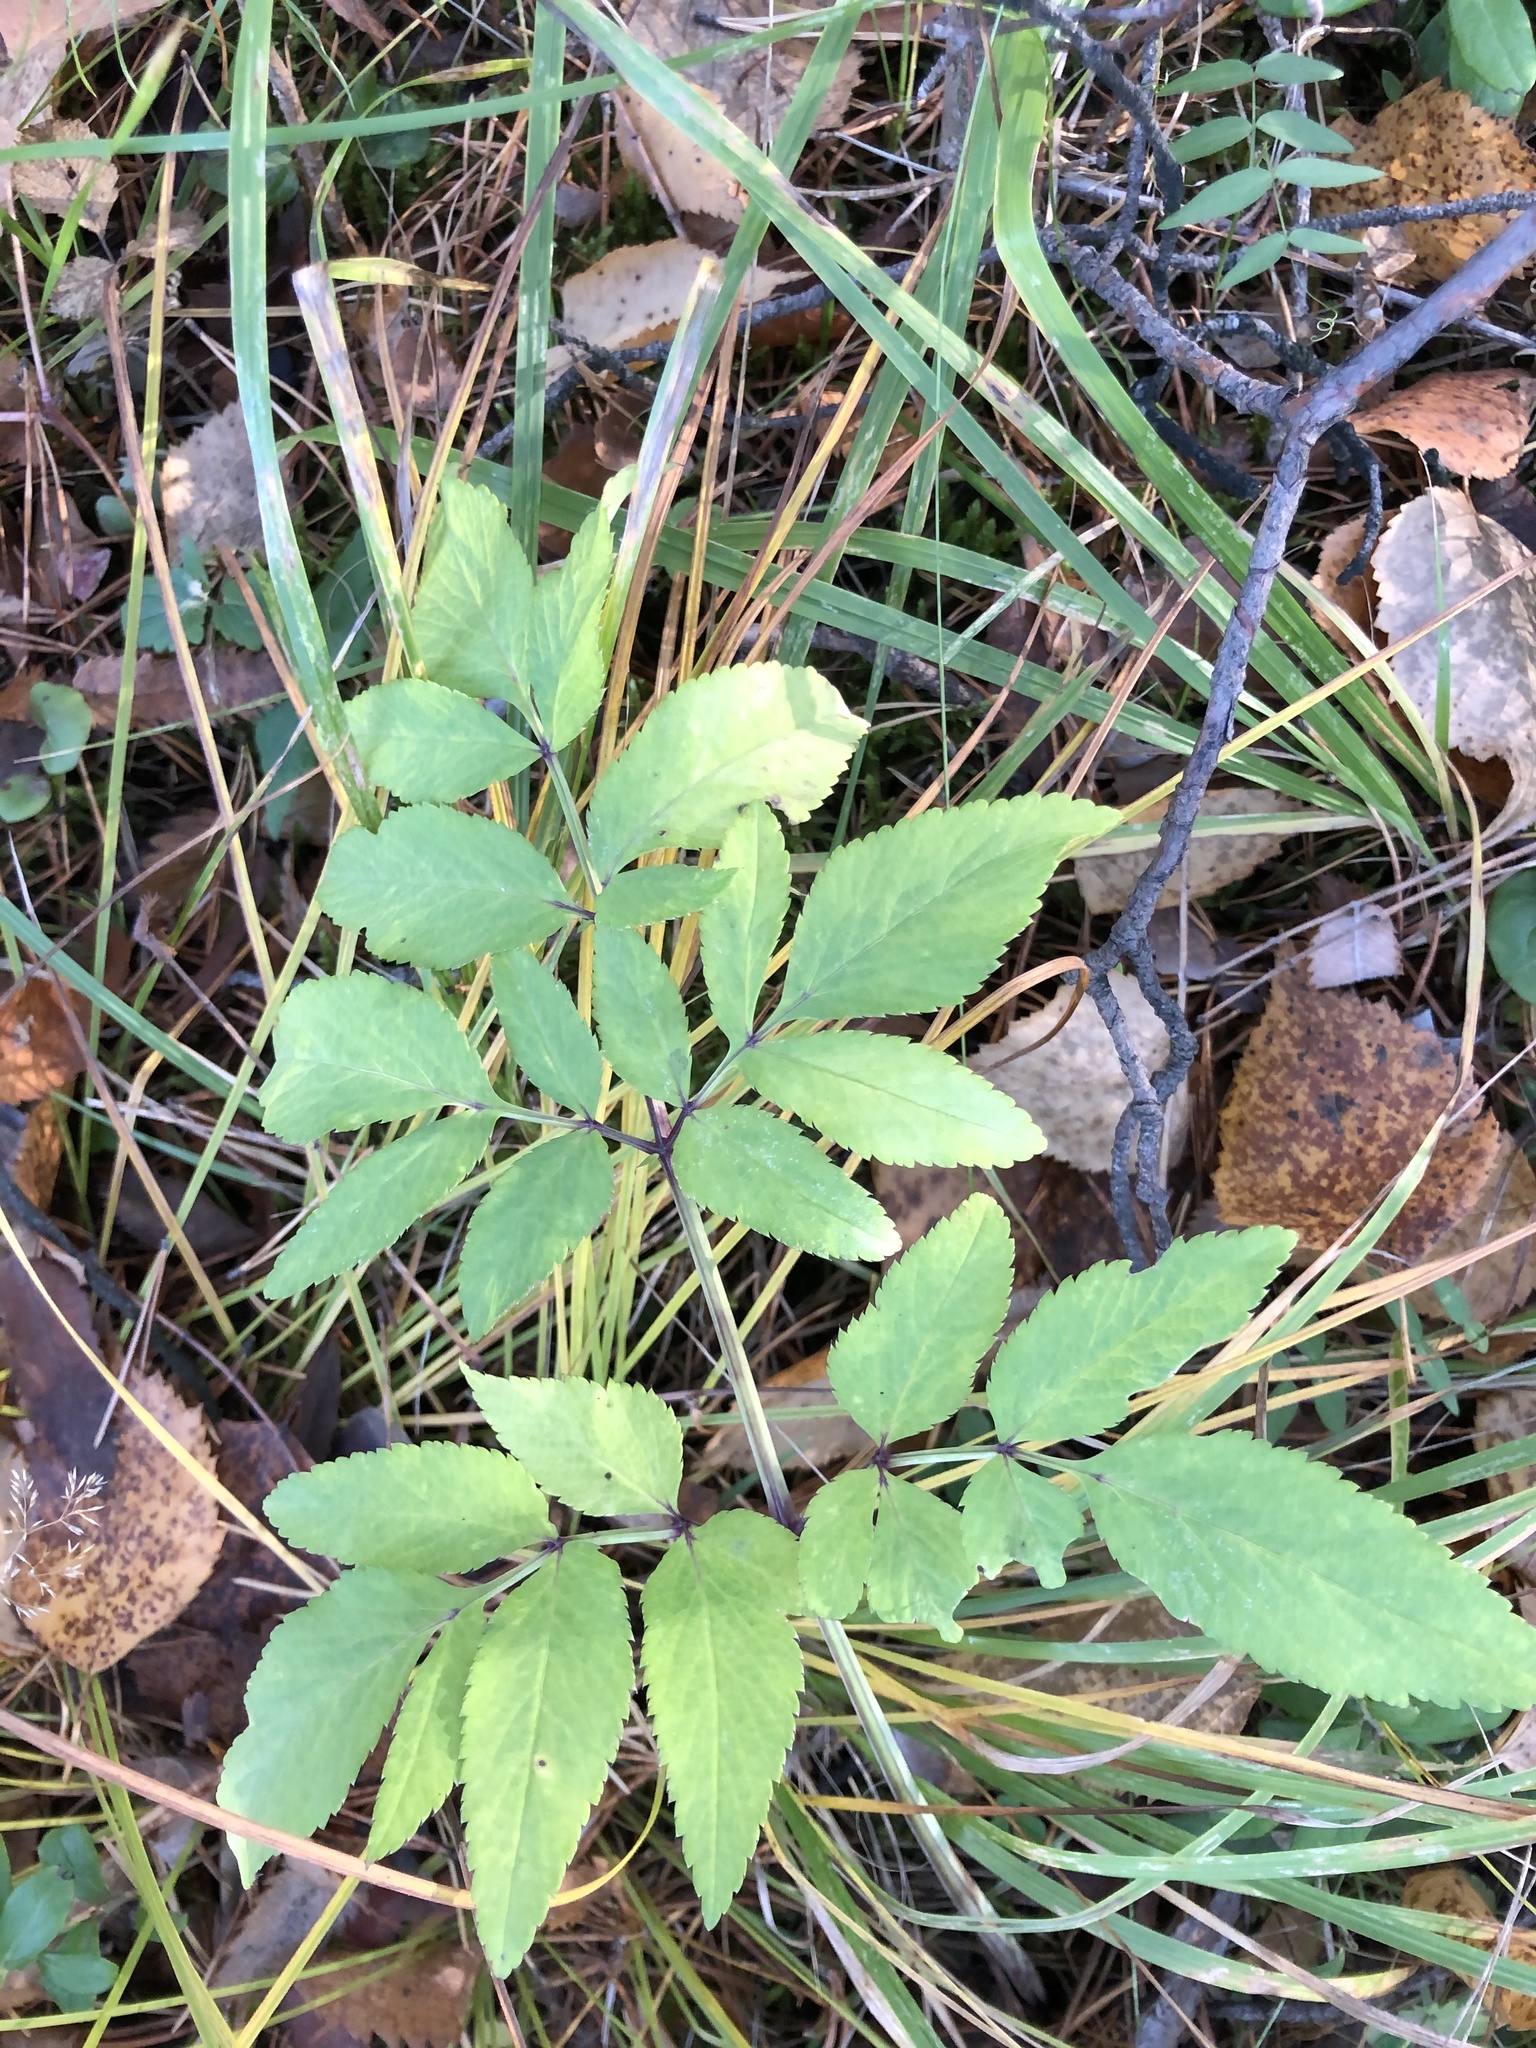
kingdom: Plantae
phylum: Tracheophyta
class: Magnoliopsida
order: Apiales
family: Apiaceae
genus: Angelica
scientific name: Angelica sylvestris
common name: Wild angelica
